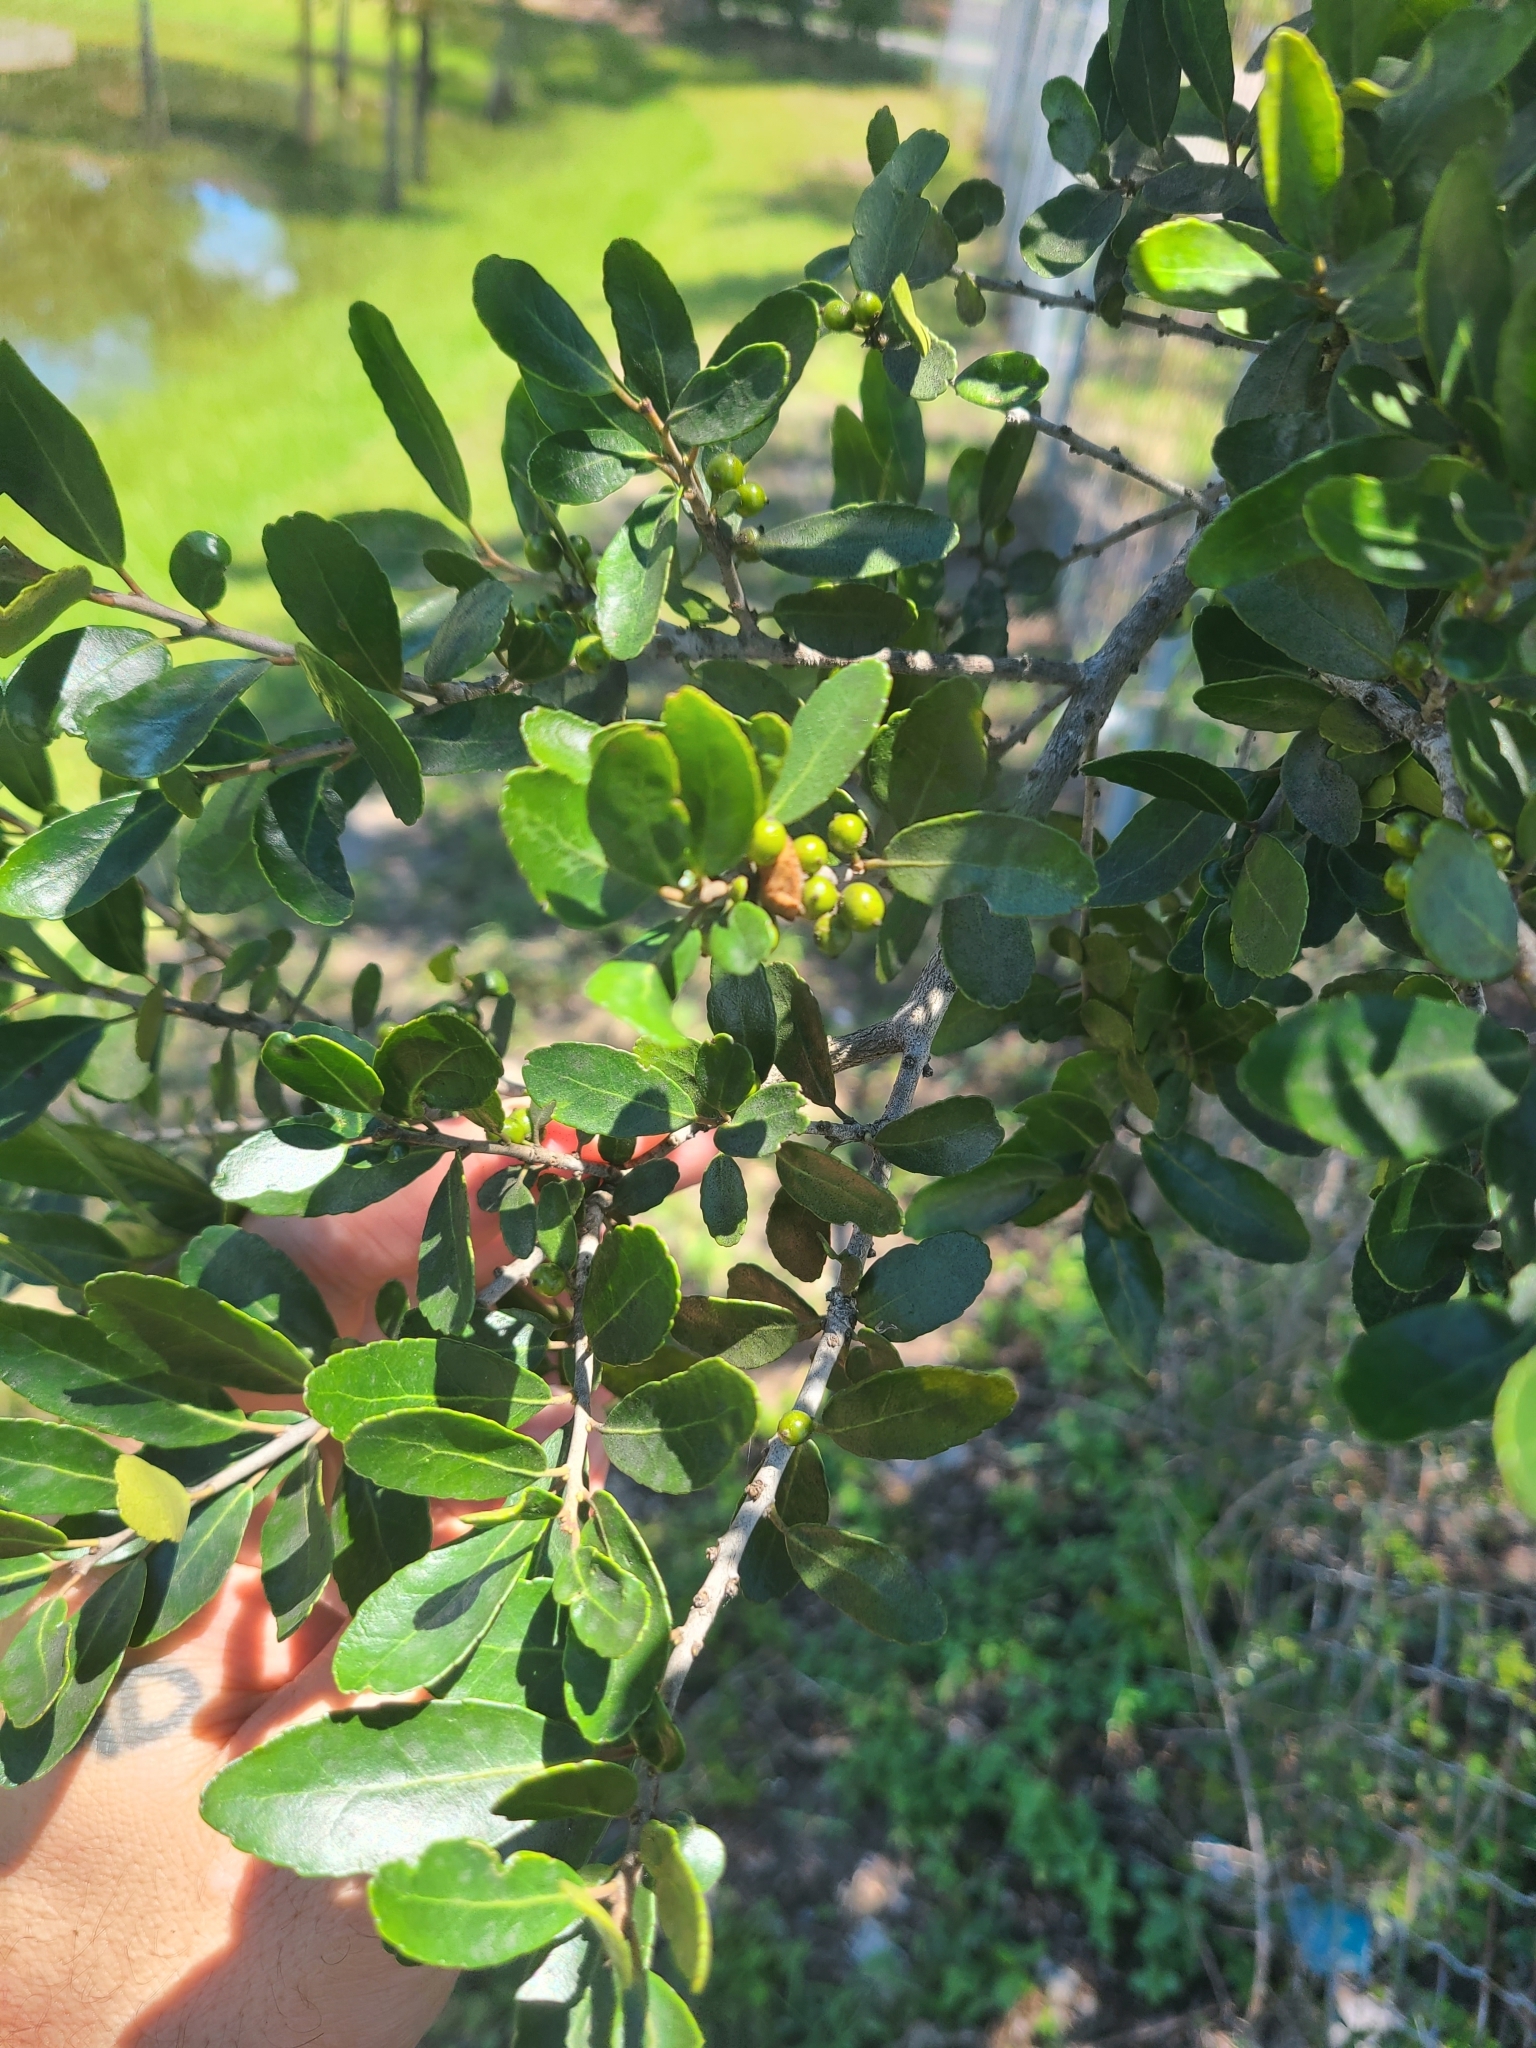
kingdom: Plantae
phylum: Tracheophyta
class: Magnoliopsida
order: Aquifoliales
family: Aquifoliaceae
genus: Ilex
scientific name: Ilex vomitoria
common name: Yaupon holly
